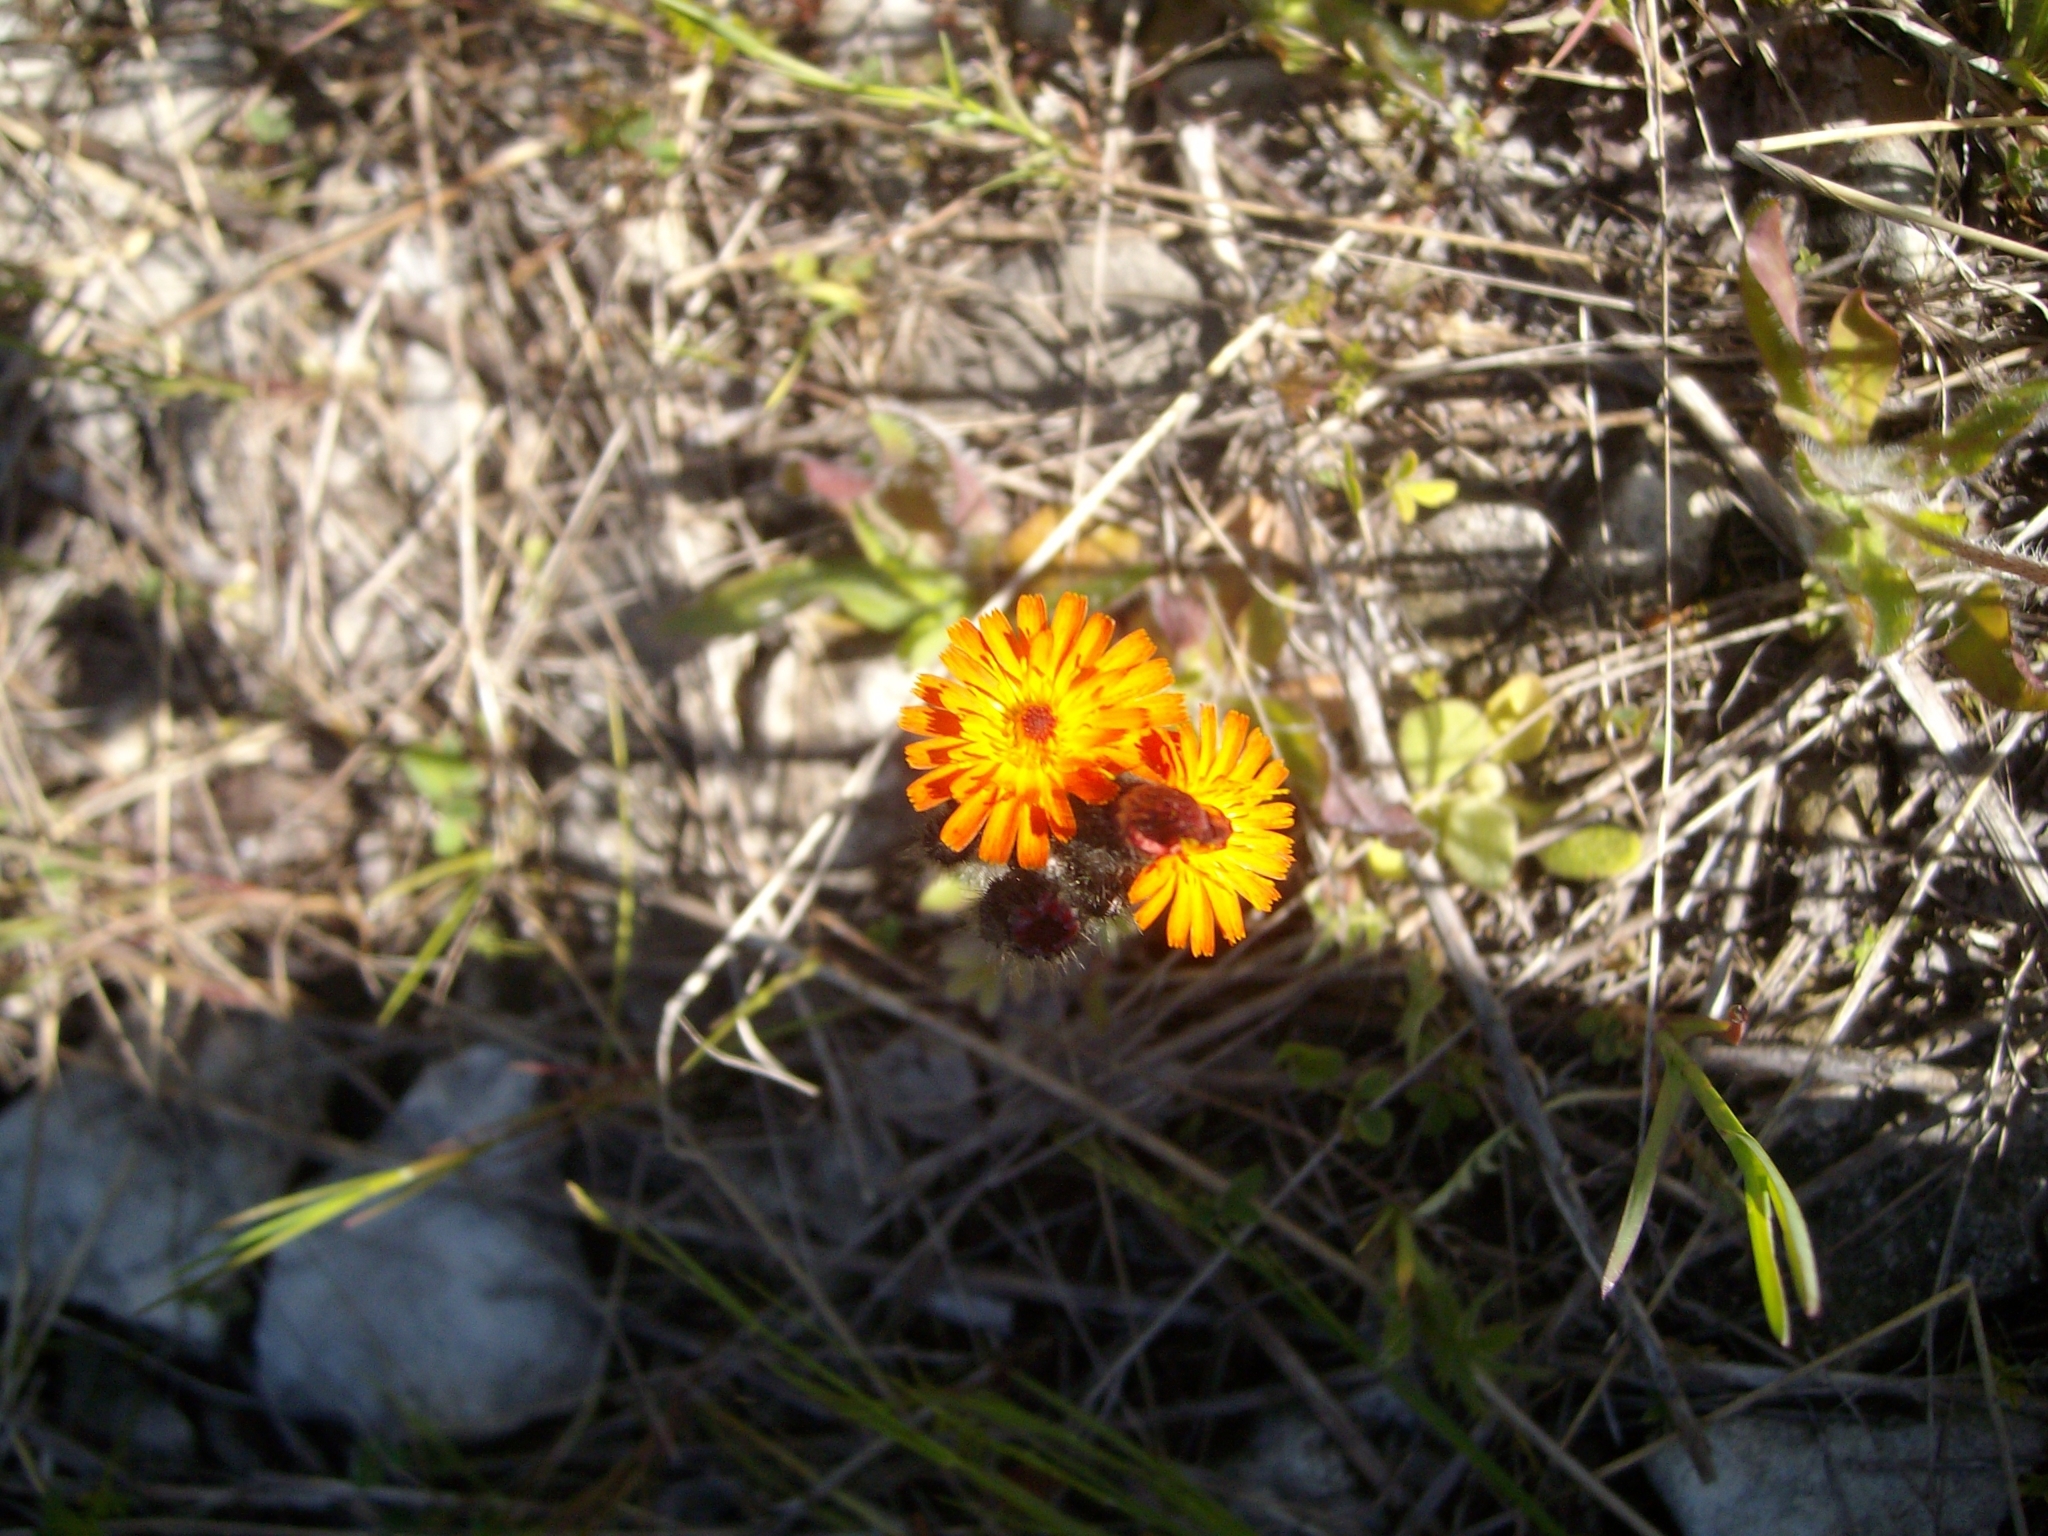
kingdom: Plantae
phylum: Tracheophyta
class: Magnoliopsida
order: Asterales
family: Asteraceae
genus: Pilosella
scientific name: Pilosella aurantiaca
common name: Fox-and-cubs
